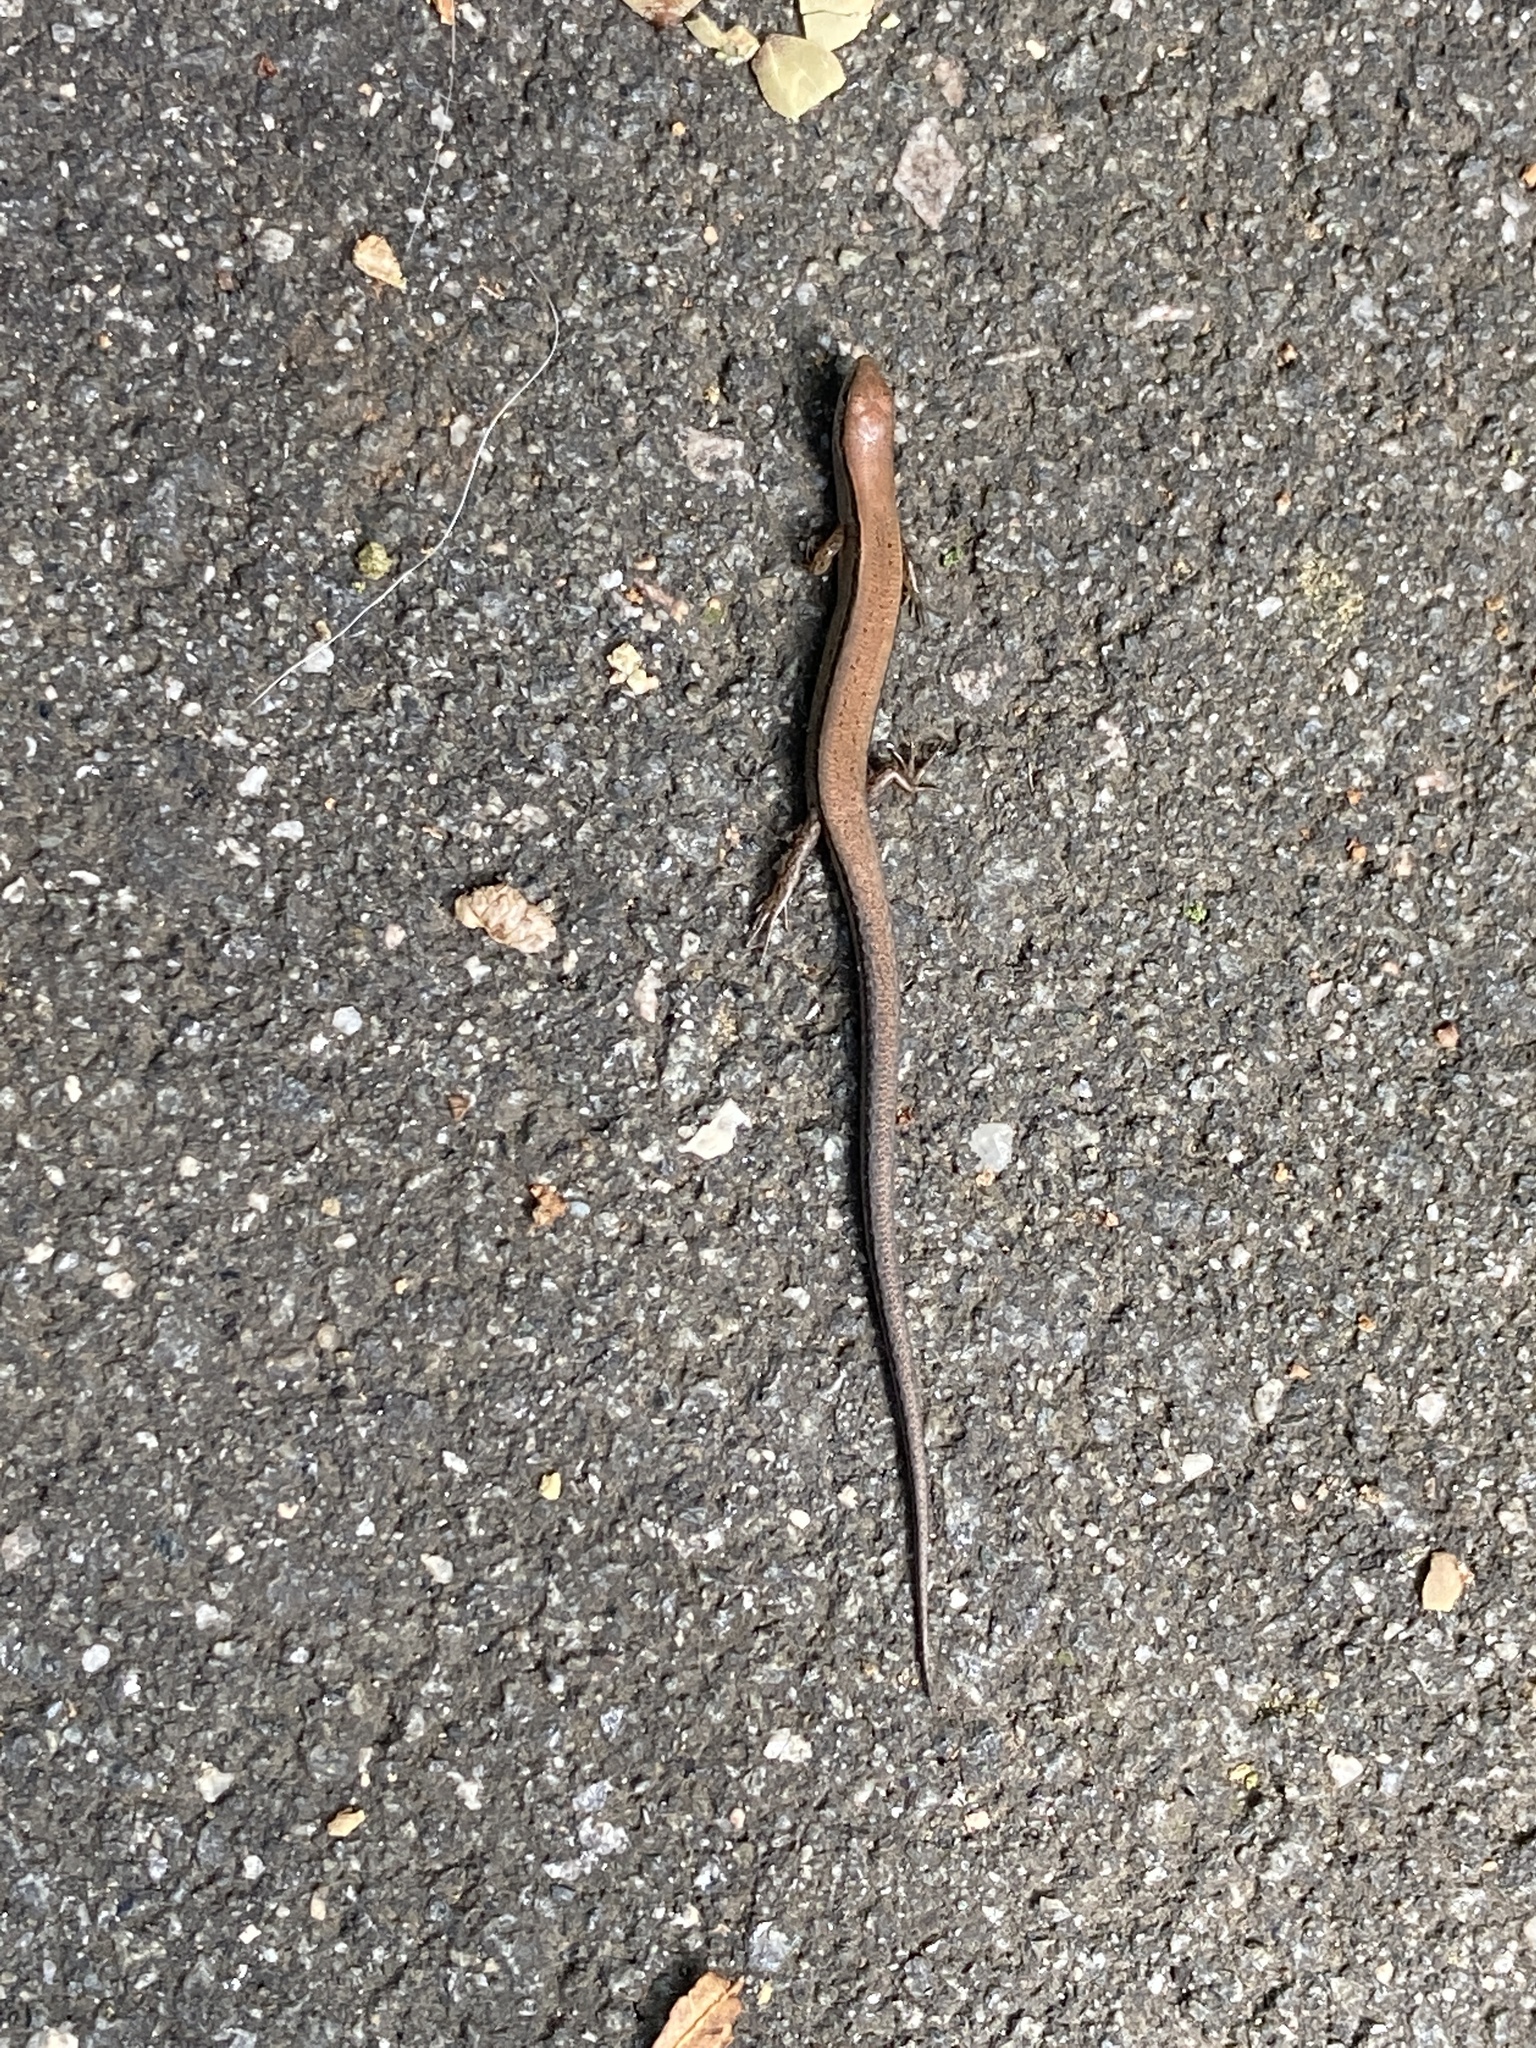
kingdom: Animalia
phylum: Chordata
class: Squamata
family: Scincidae
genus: Scincella
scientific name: Scincella lateralis
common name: Ground skink
